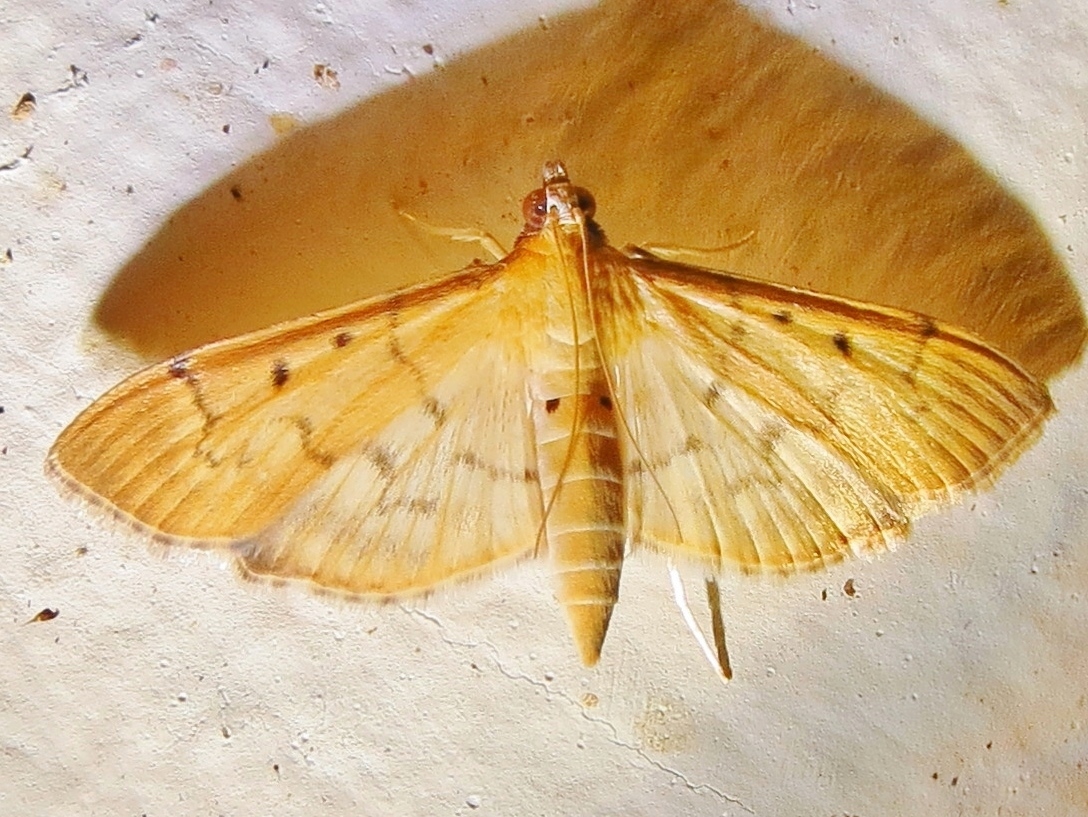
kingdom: Animalia
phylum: Arthropoda
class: Insecta
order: Lepidoptera
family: Crambidae
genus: Herpetogramma
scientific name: Herpetogramma bipunctalis
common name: Southern beet webworm
